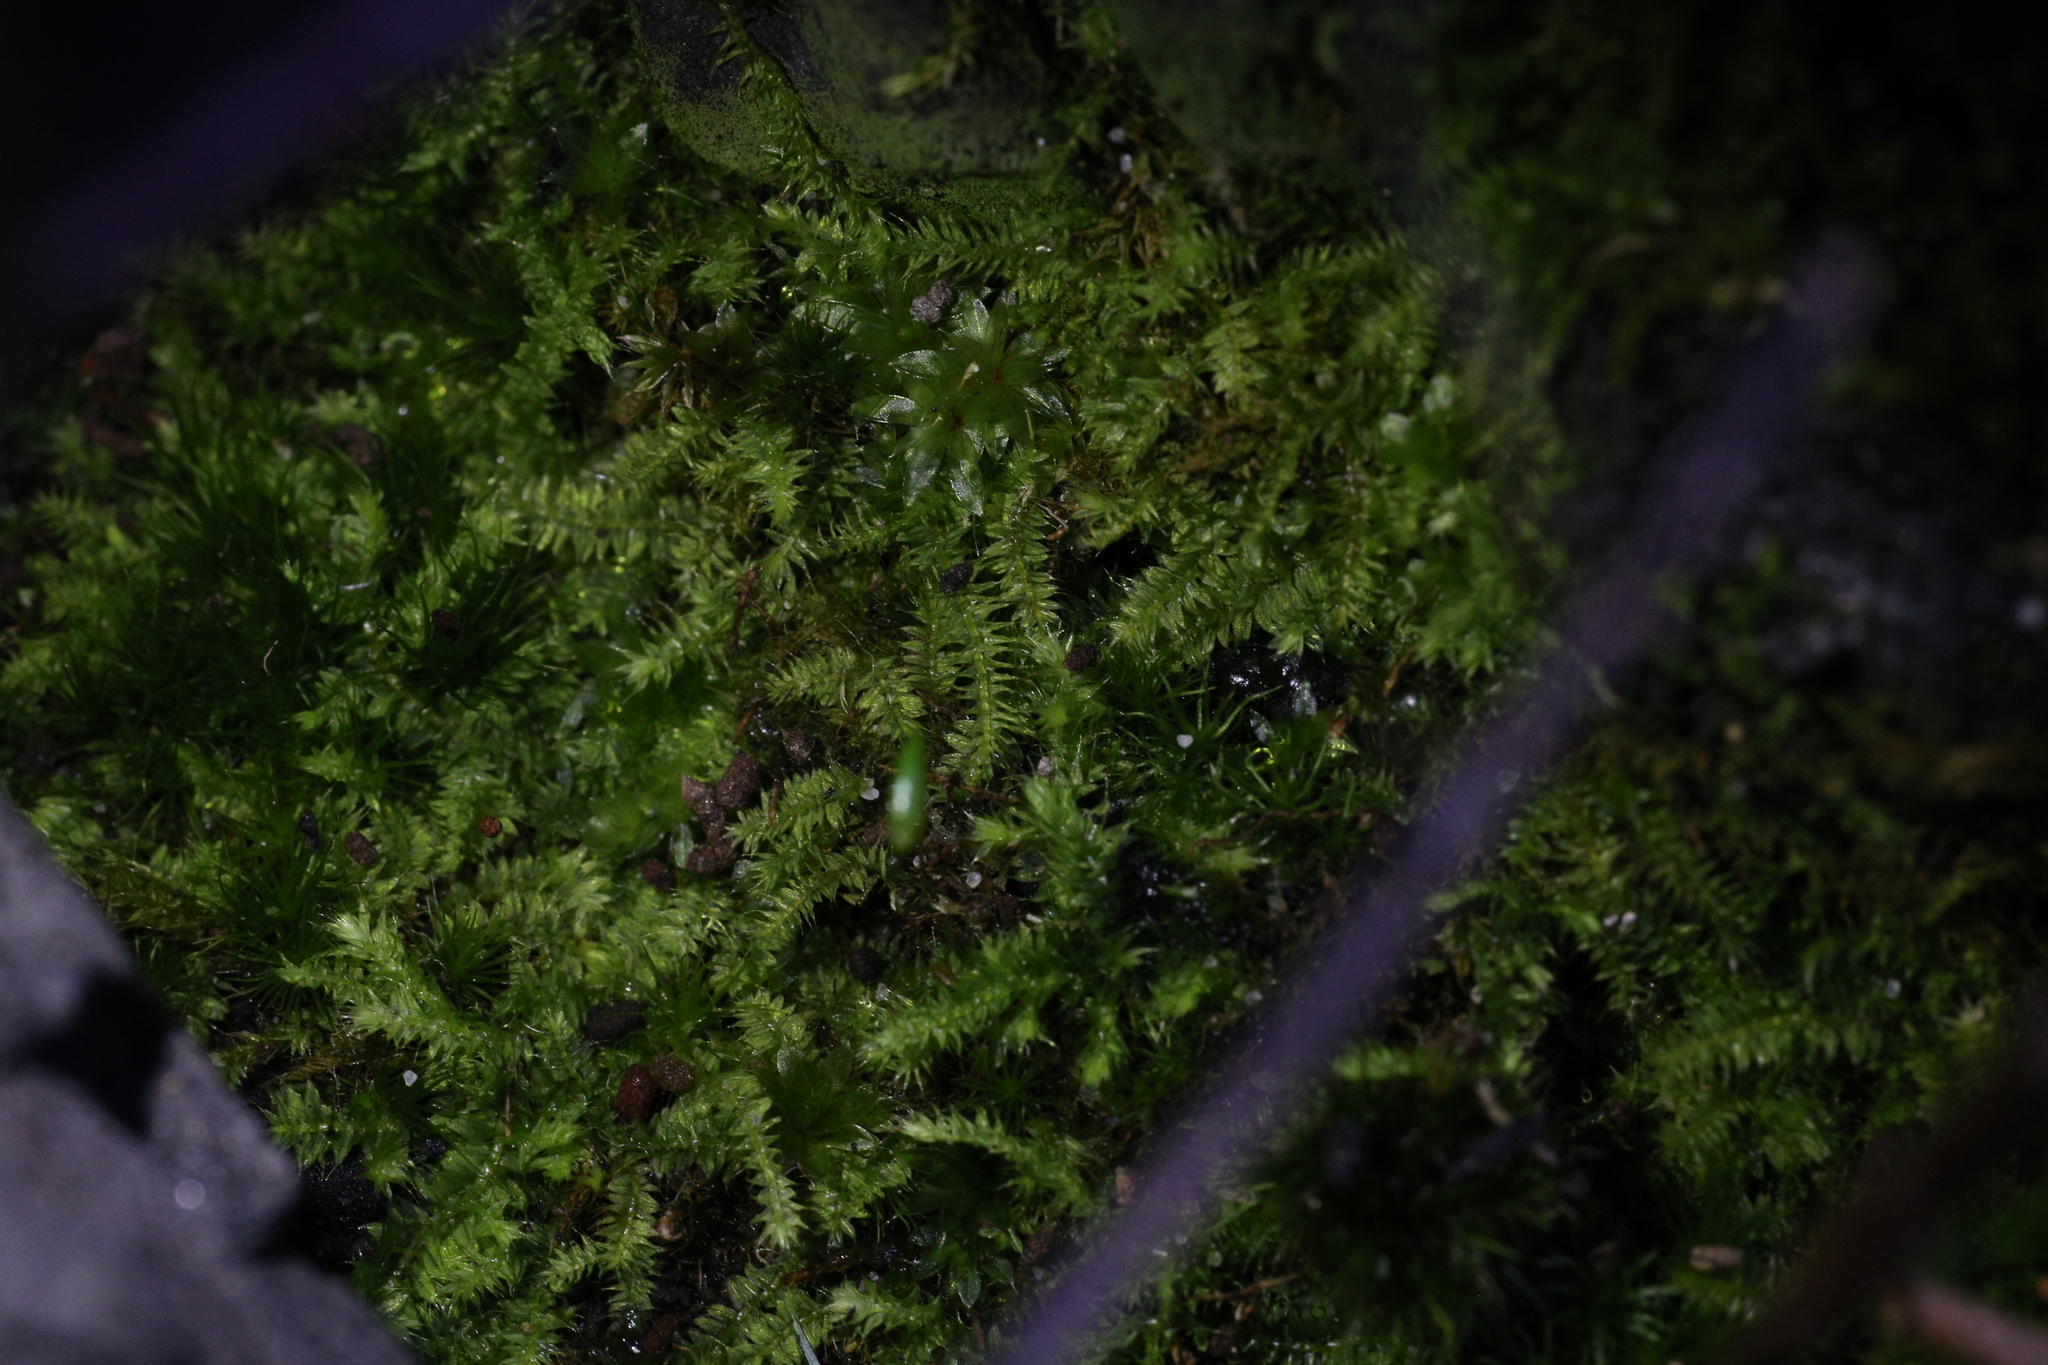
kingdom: Plantae
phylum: Bryophyta
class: Bryopsida
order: Hypnodendrales
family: Racopilaceae
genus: Racopilum
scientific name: Racopilum cuspidigerum
